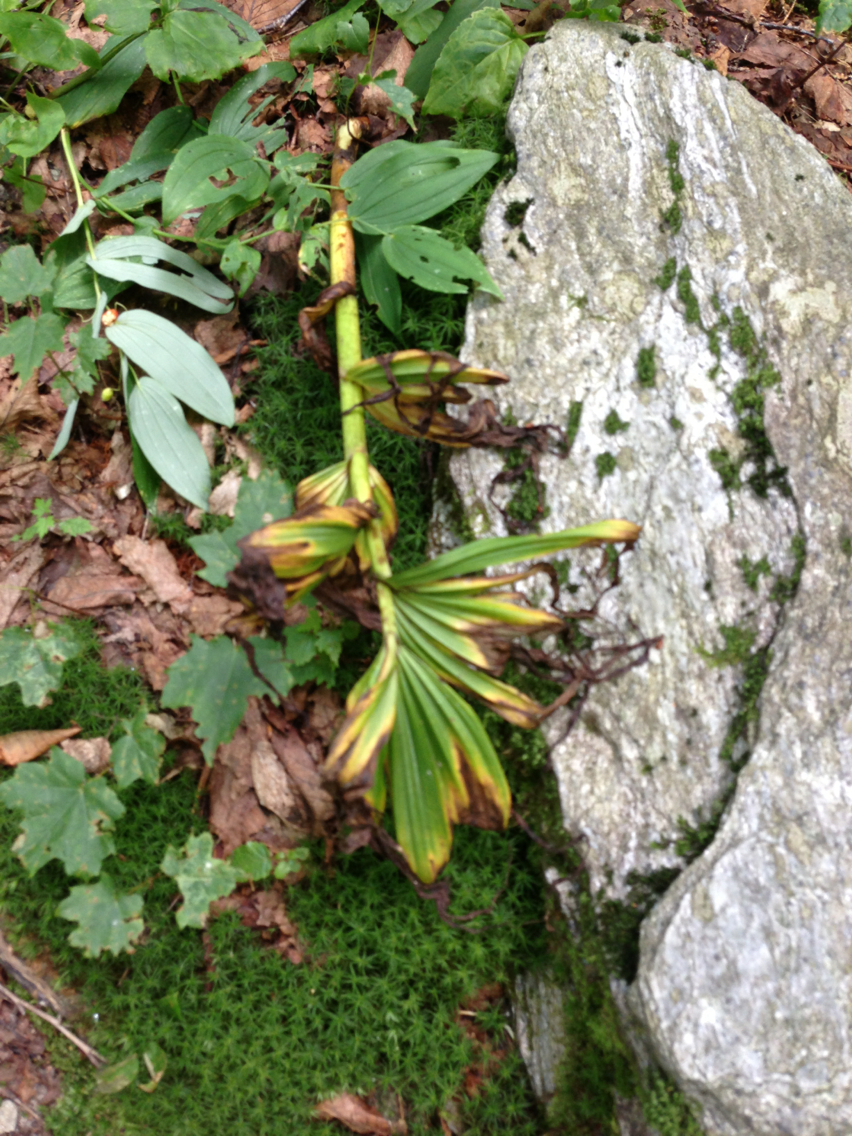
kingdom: Plantae
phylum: Tracheophyta
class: Liliopsida
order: Liliales
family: Melanthiaceae
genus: Veratrum
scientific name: Veratrum viride
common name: American false hellebore
